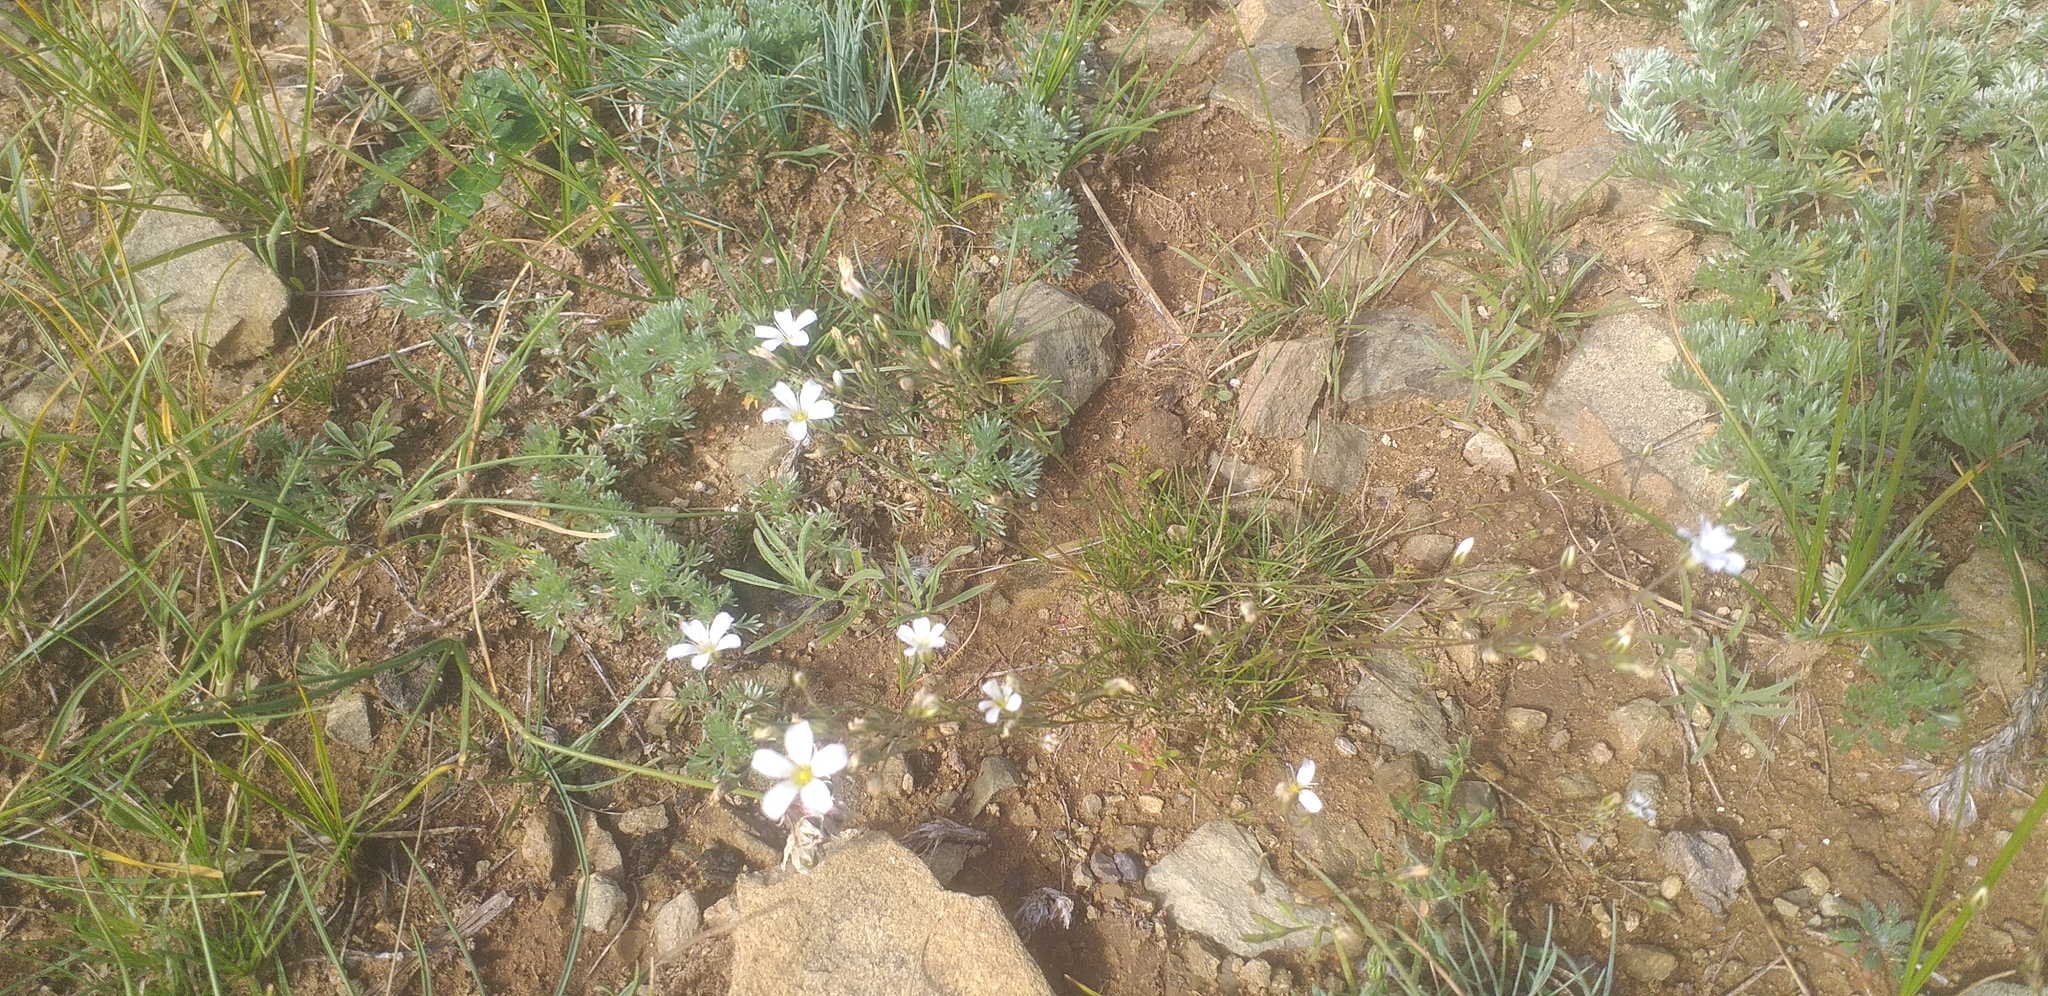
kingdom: Plantae
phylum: Tracheophyta
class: Magnoliopsida
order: Caryophyllales
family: Caryophyllaceae
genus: Eremogone
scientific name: Eremogone capillaris
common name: Slender mountain sandwort
